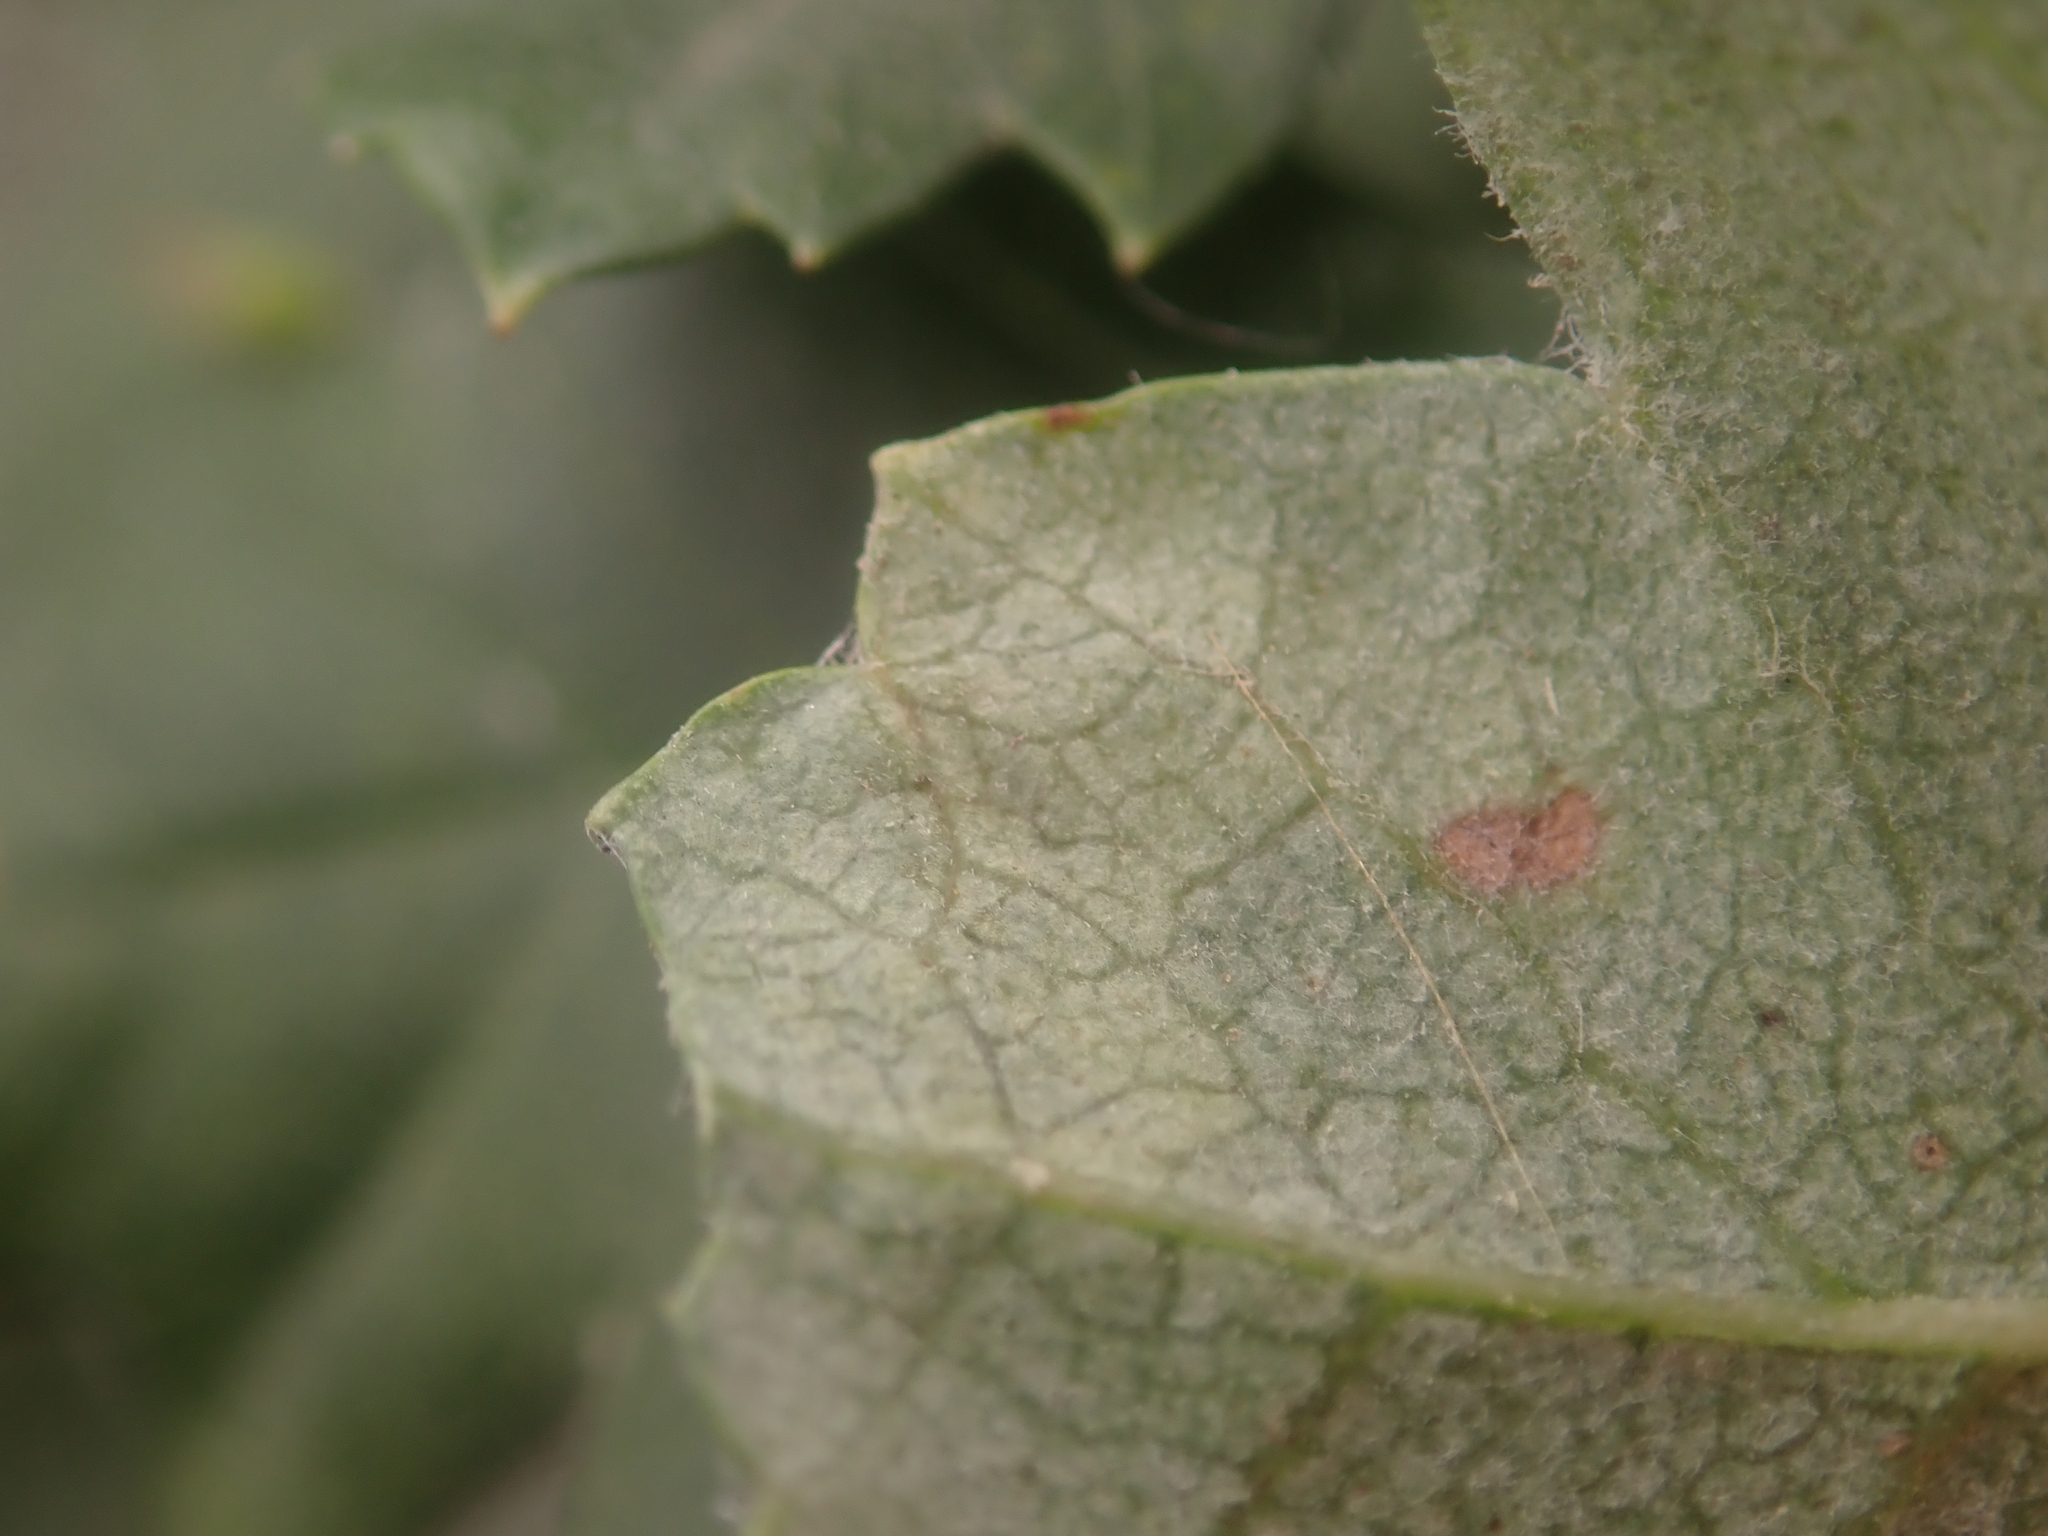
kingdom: Animalia
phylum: Arthropoda
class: Insecta
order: Lepidoptera
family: Nepticulidae
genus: Stigmella
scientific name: Stigmella hybnerella
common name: Greenish thorn pigmy
